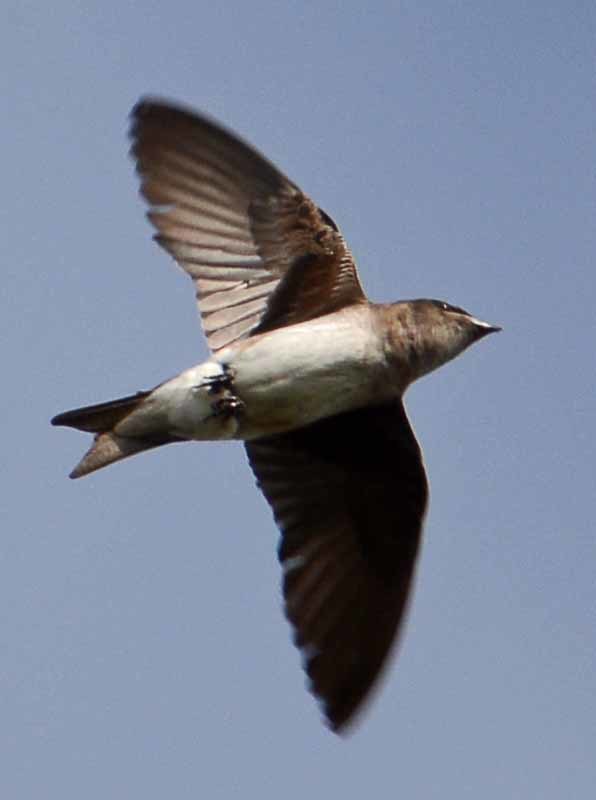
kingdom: Animalia
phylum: Chordata
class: Aves
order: Passeriformes
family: Hirundinidae
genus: Progne
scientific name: Progne chalybea
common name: Grey-breasted martin
